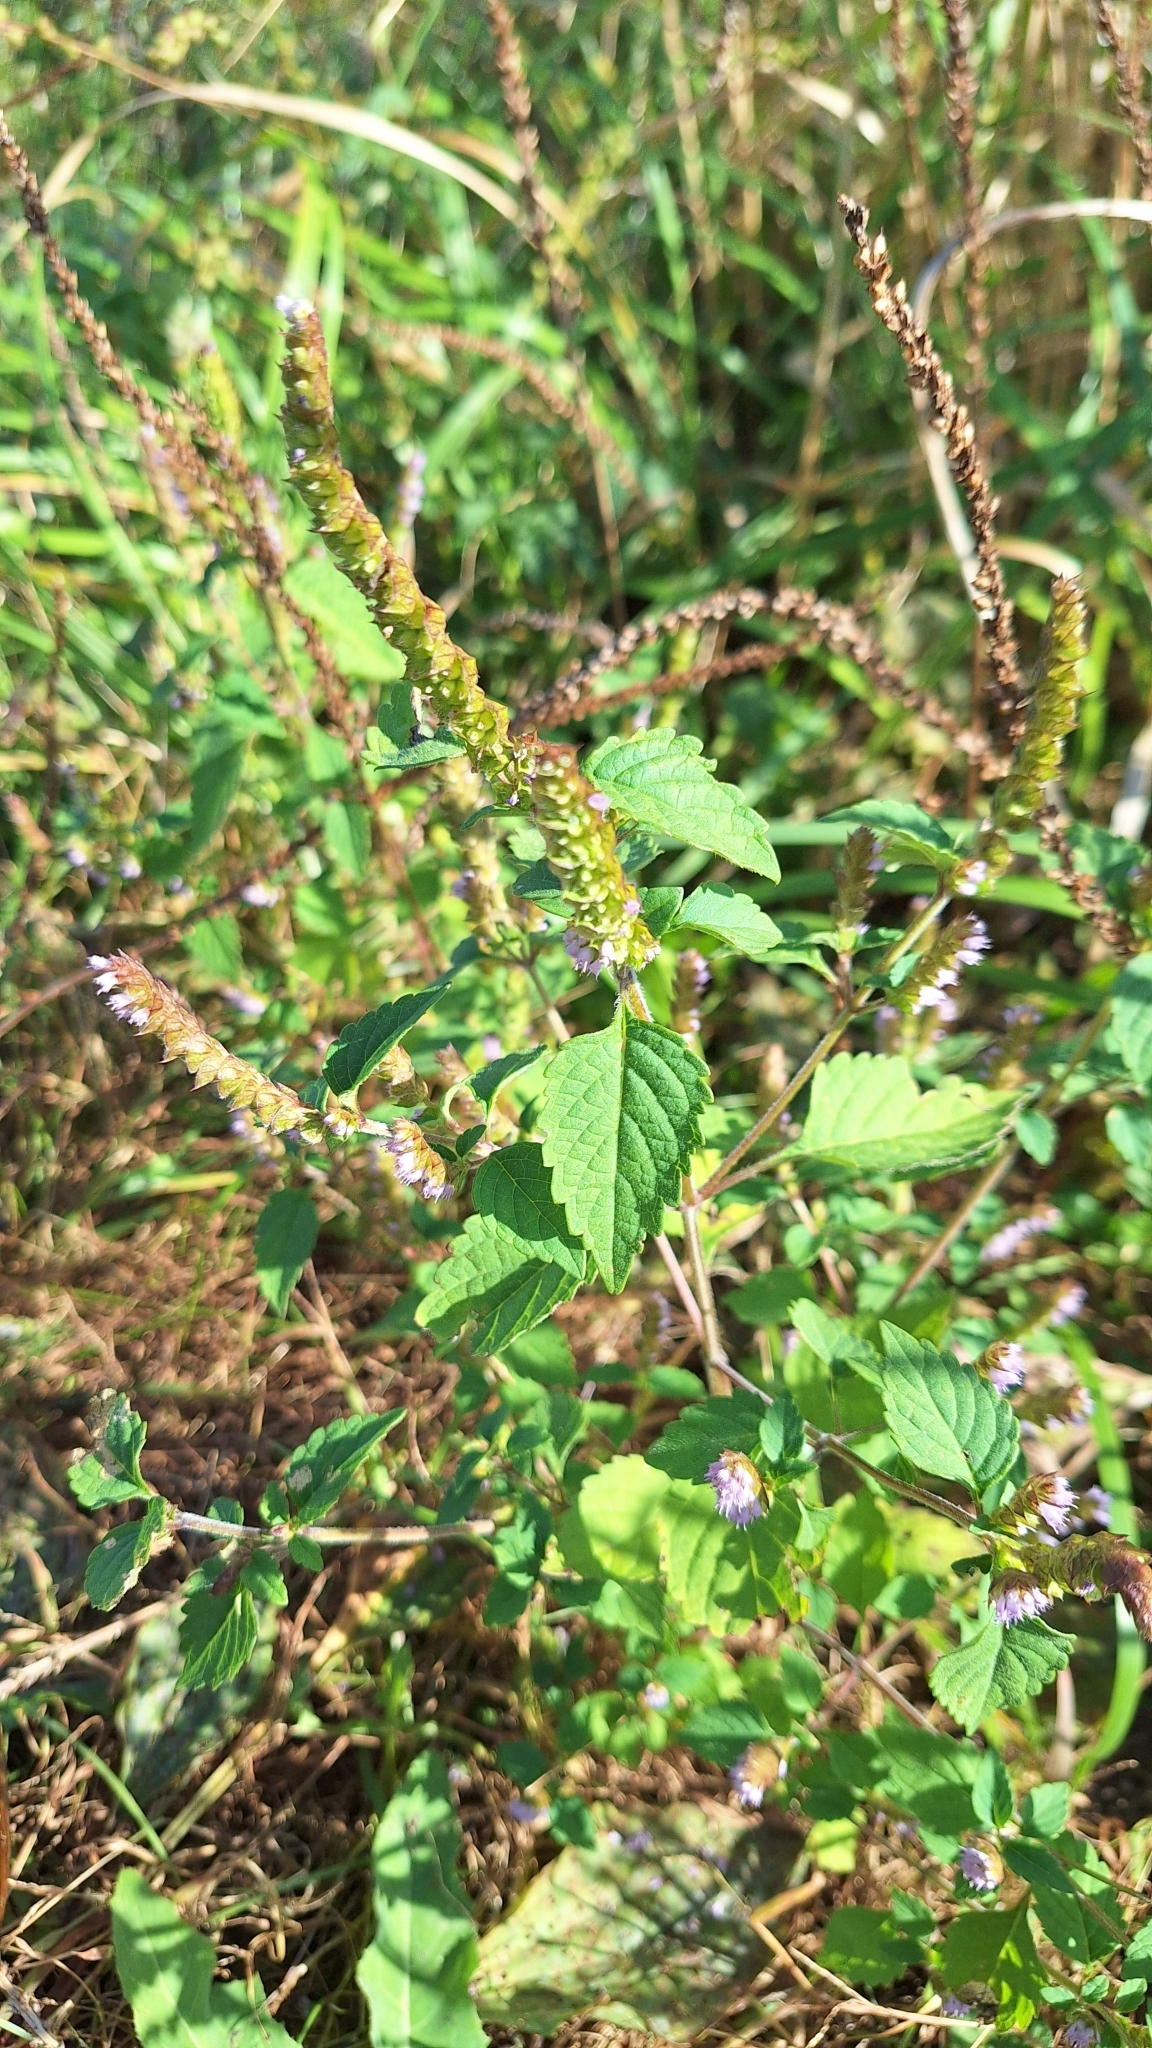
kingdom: Plantae
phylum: Tracheophyta
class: Magnoliopsida
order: Lamiales
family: Lamiaceae
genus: Elsholtzia
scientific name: Elsholtzia ciliata
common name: Ciliate elsholtzia
